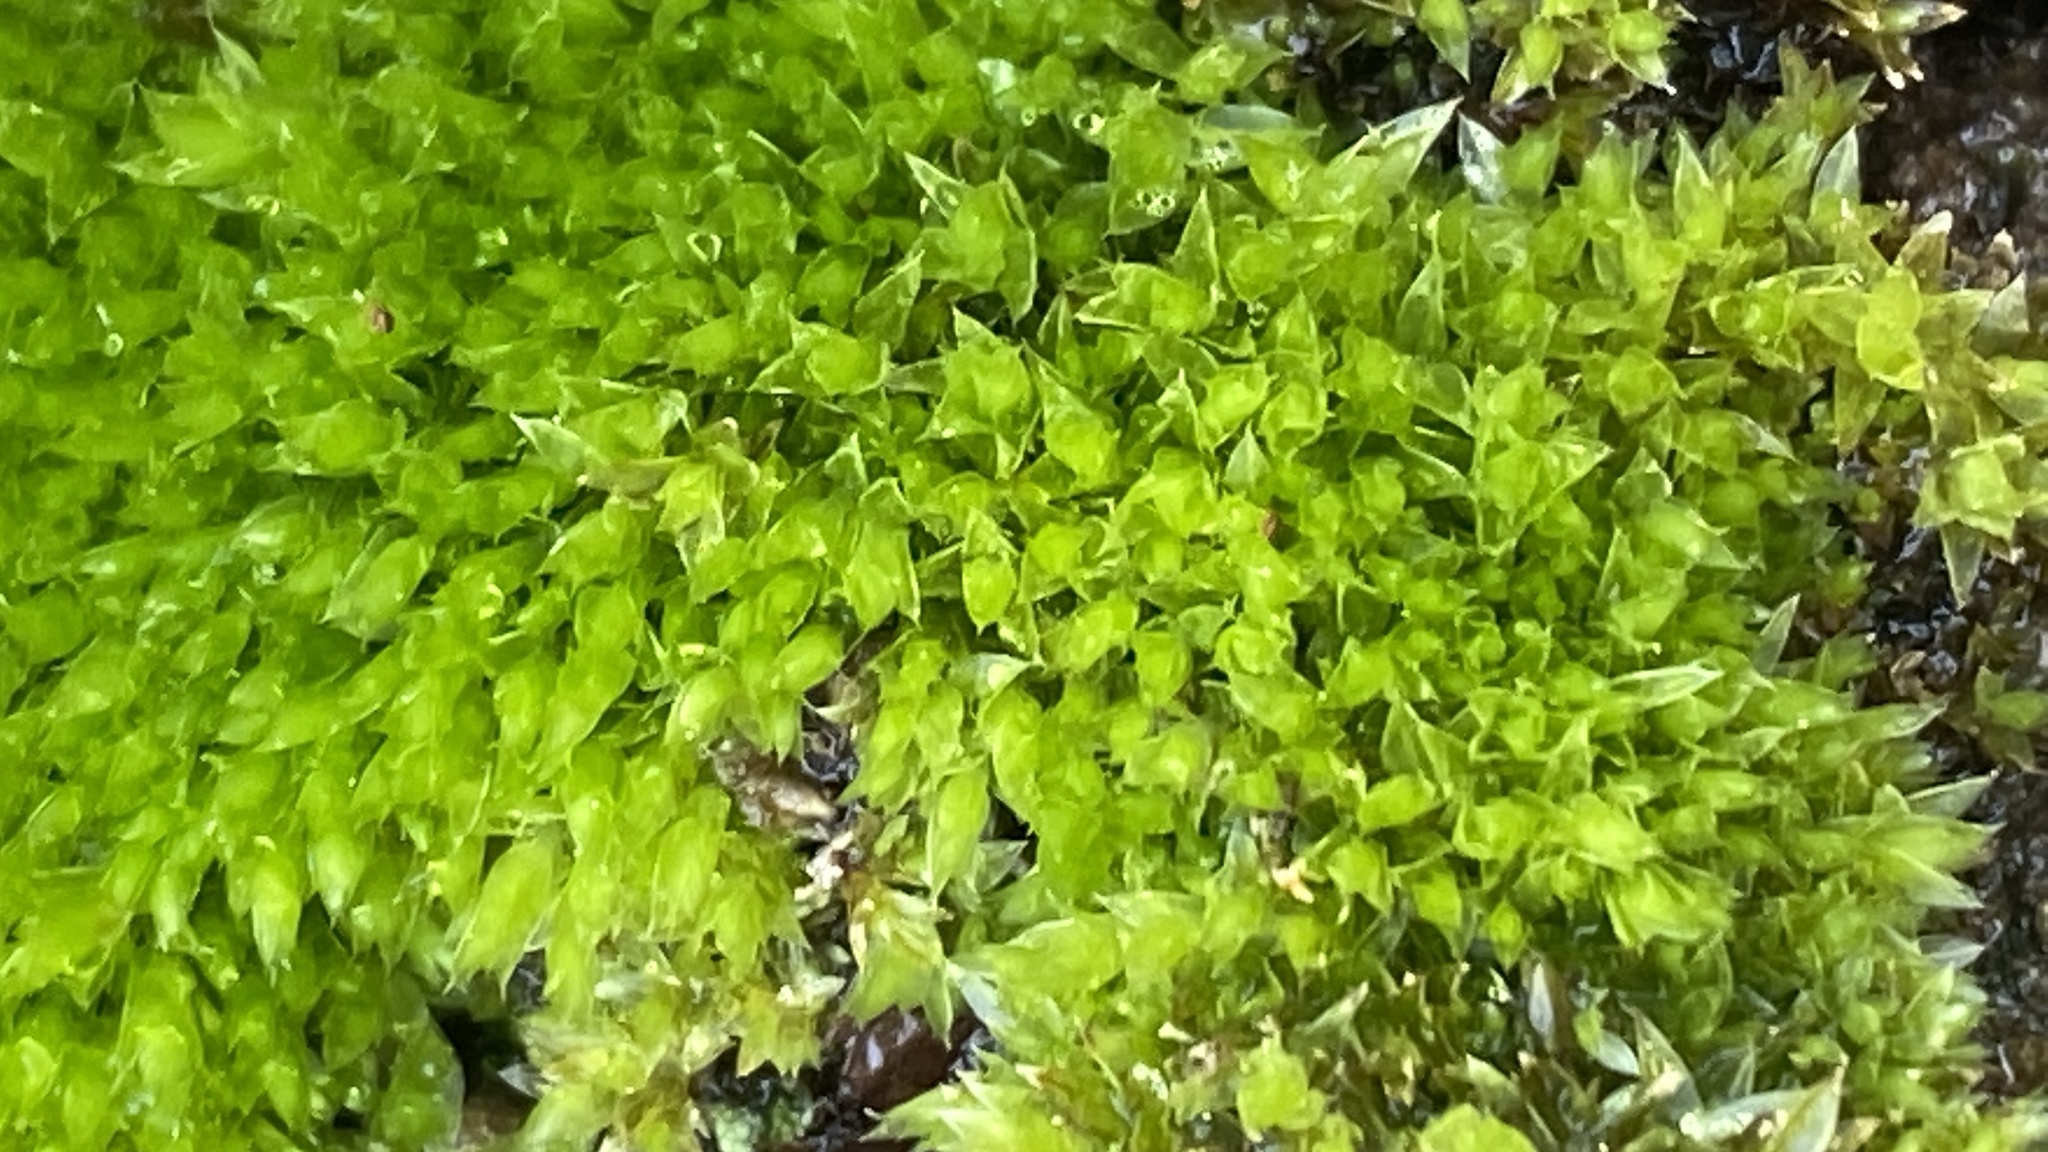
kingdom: Plantae
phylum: Bryophyta
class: Bryopsida
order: Bryales
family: Mniaceae
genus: Pohlia
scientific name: Pohlia nutans
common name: Nodding thread-moss
